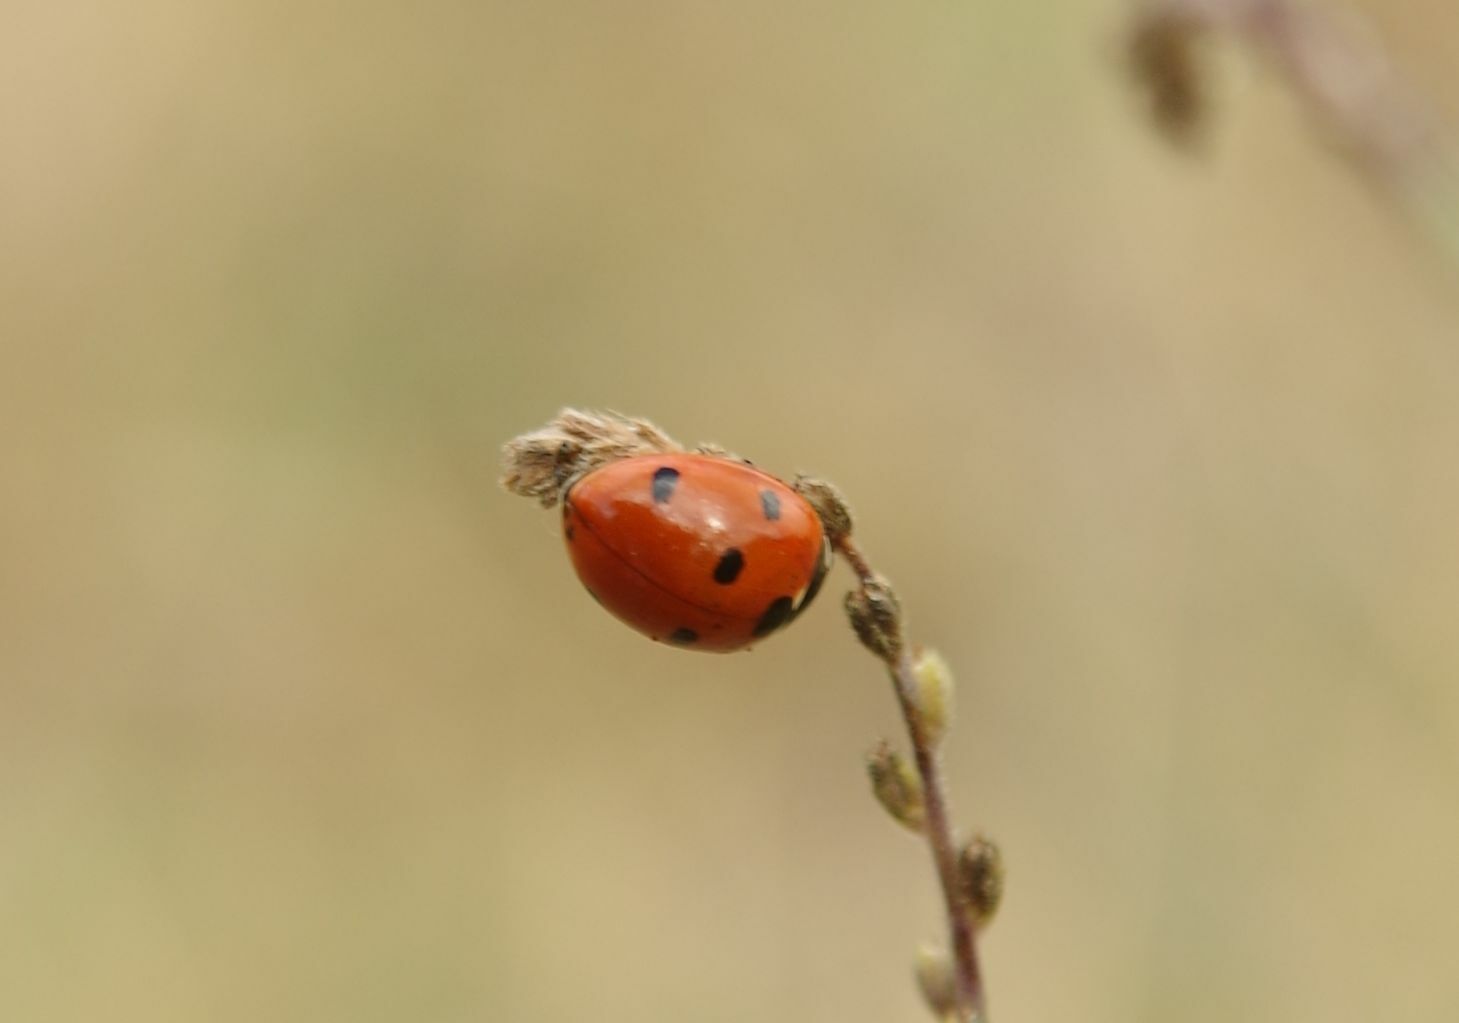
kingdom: Animalia
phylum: Arthropoda
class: Insecta
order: Coleoptera
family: Coccinellidae
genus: Coccinella
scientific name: Coccinella septempunctata
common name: Sevenspotted lady beetle
